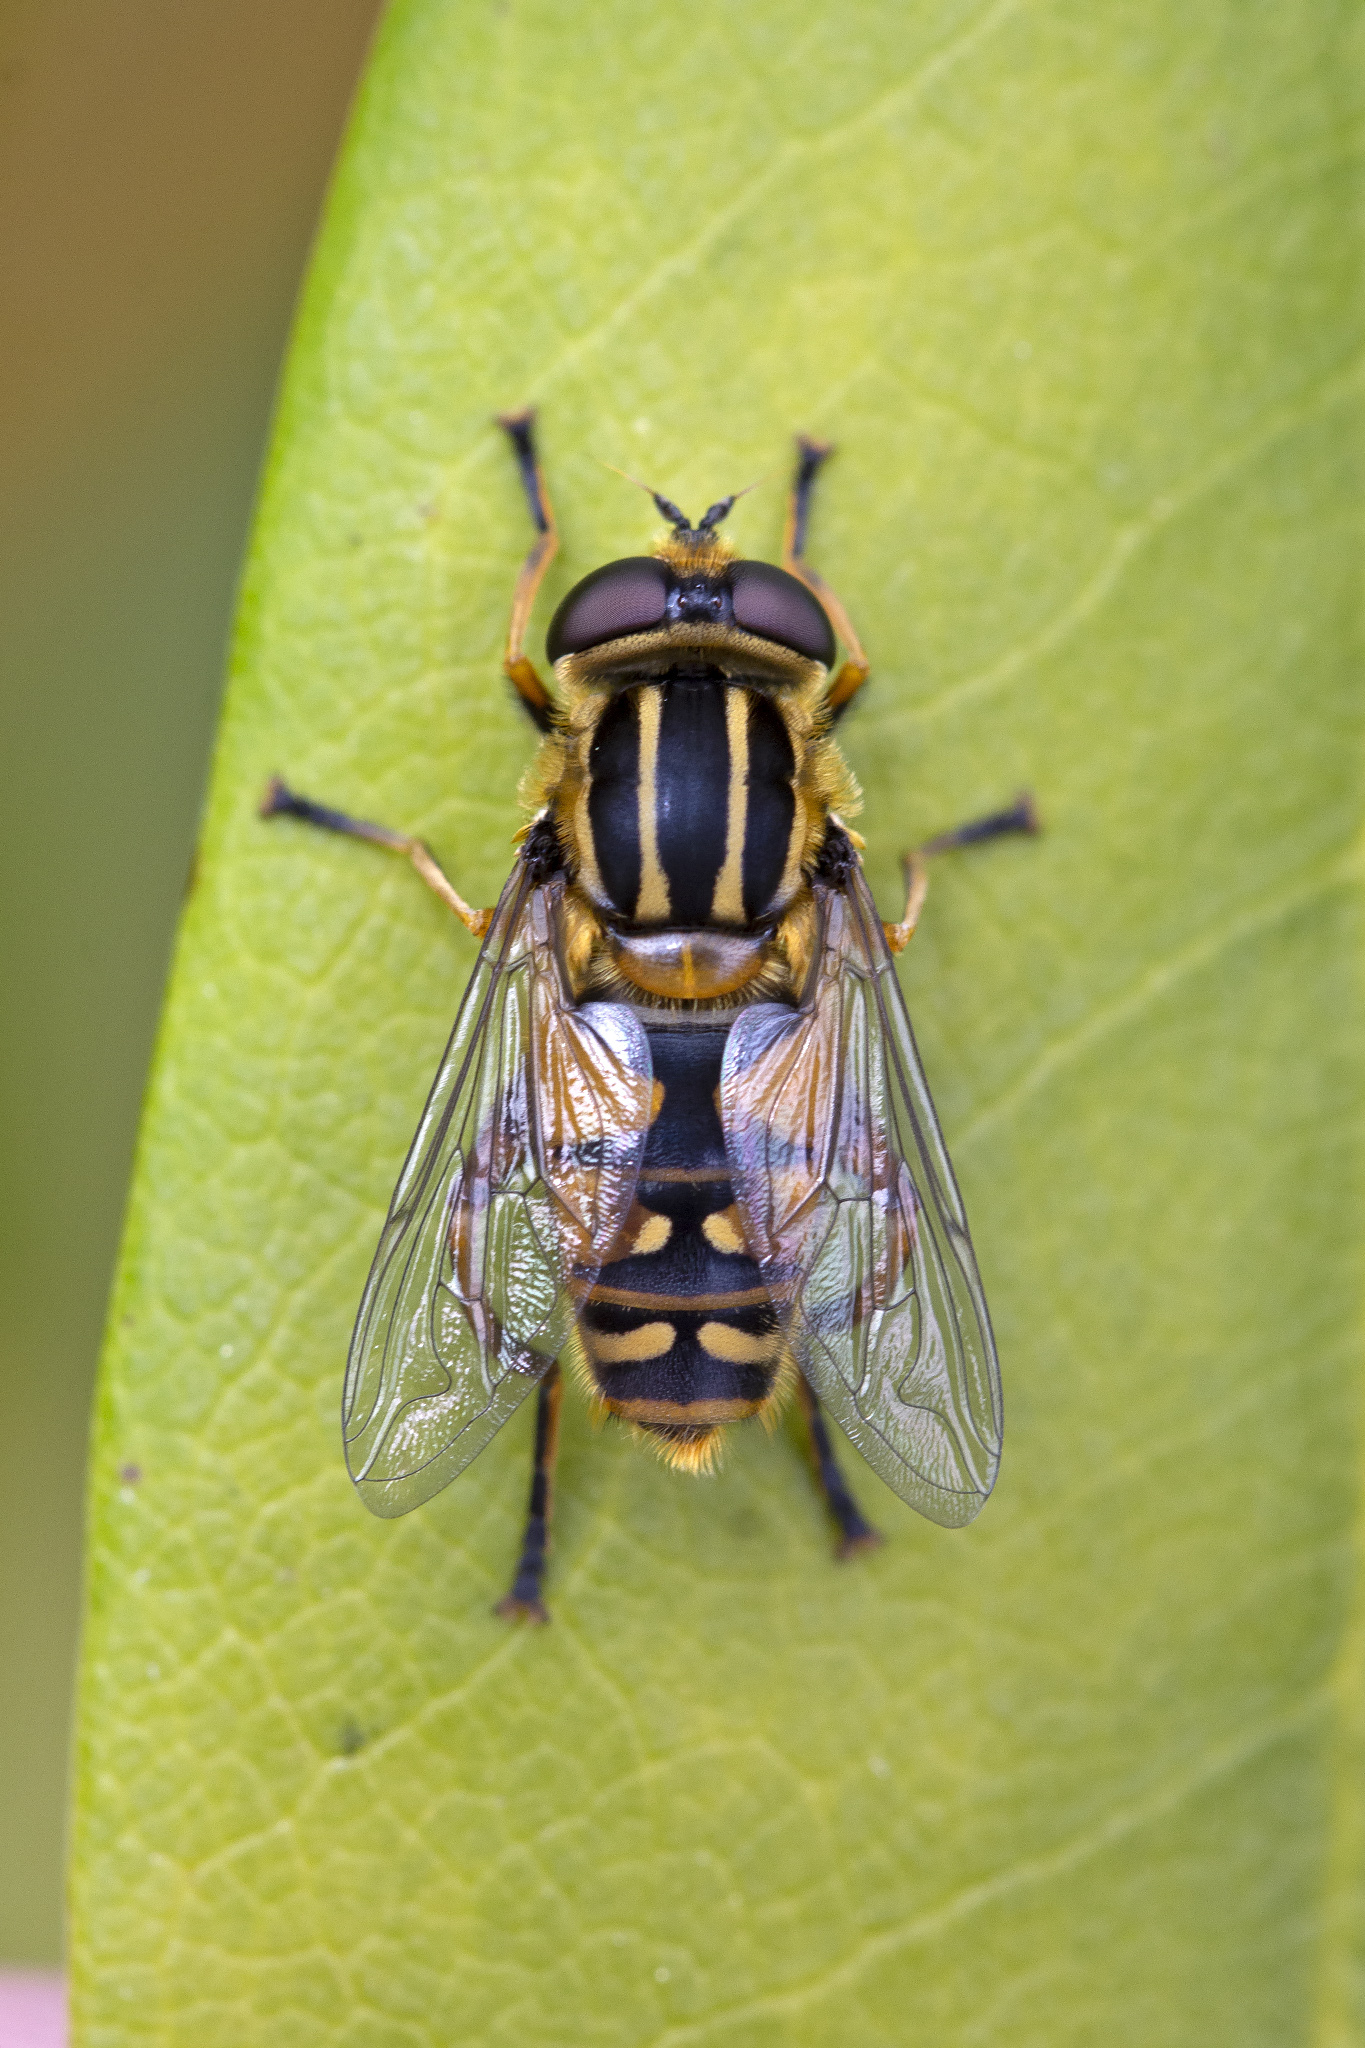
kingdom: Animalia
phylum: Arthropoda
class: Insecta
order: Diptera
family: Syrphidae
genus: Helophilus
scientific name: Helophilus pendulus
